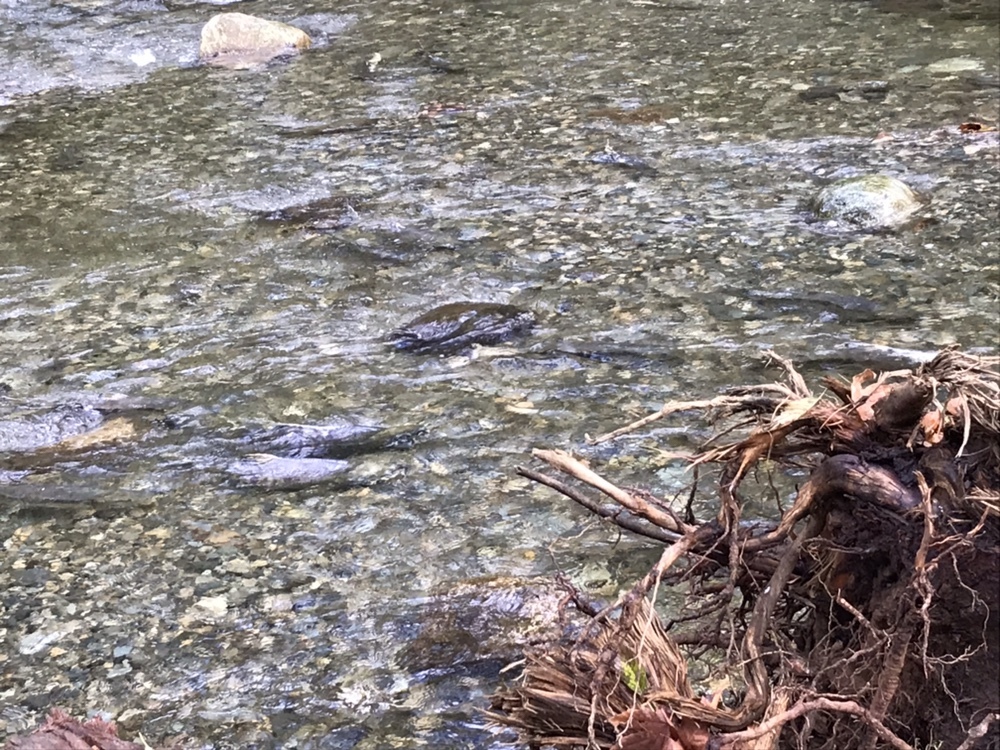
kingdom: Animalia
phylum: Chordata
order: Salmoniformes
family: Salmonidae
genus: Oncorhynchus
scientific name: Oncorhynchus keta
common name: Chum salmon
